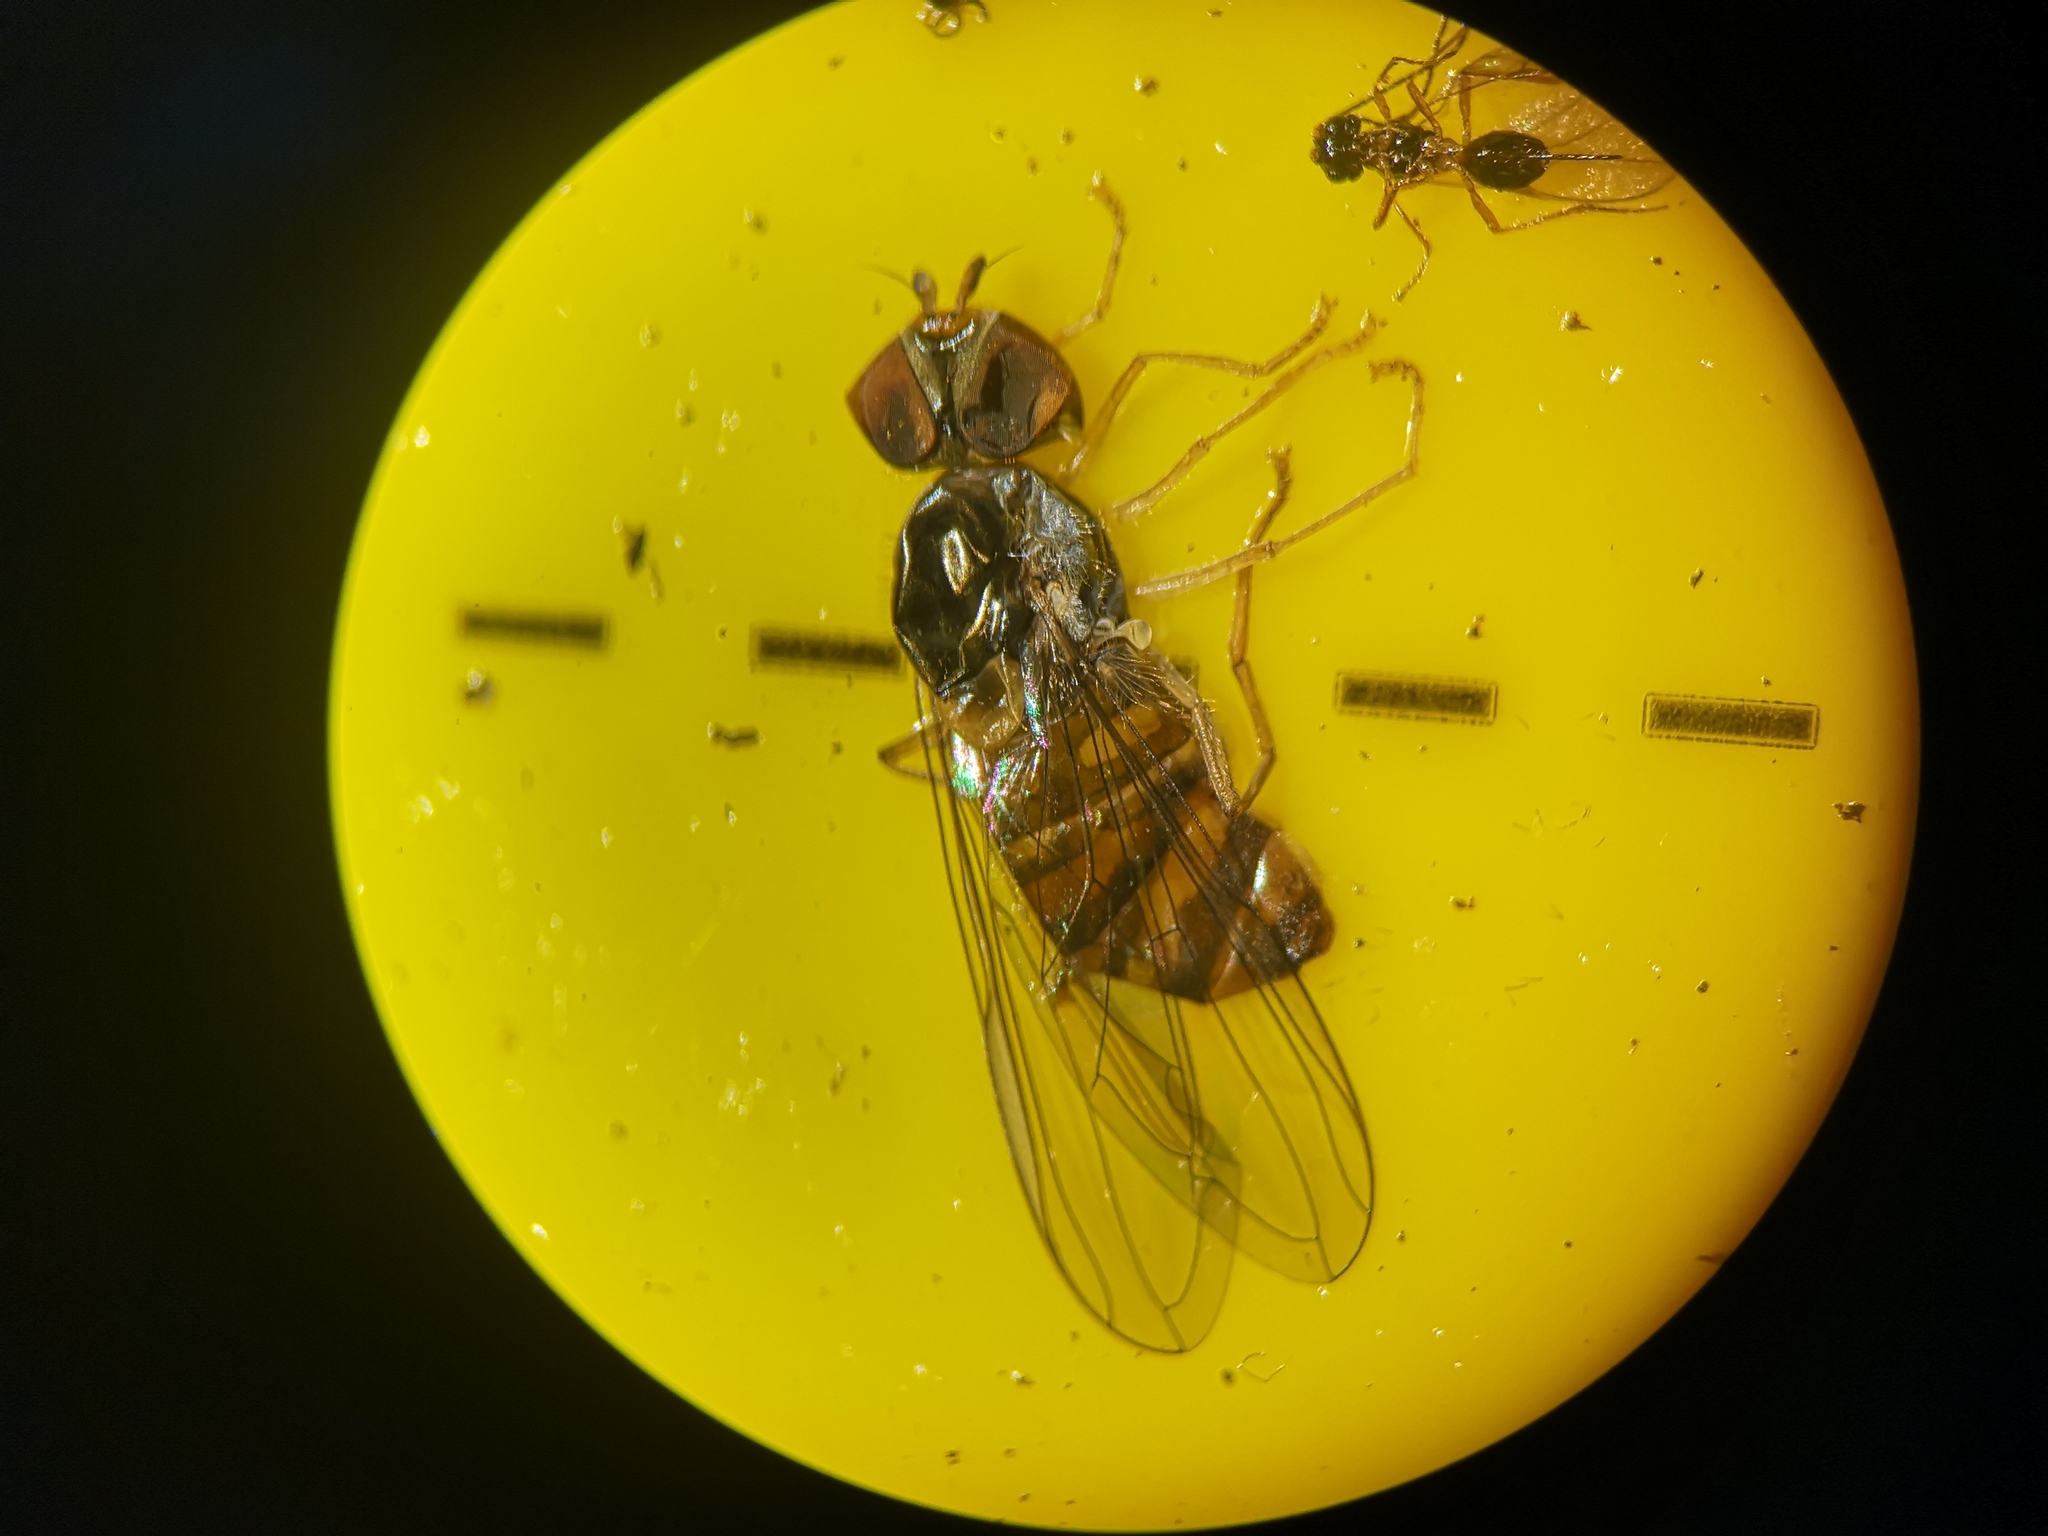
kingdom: Animalia
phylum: Arthropoda
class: Insecta
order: Diptera
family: Syrphidae
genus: Episyrphus
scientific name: Episyrphus balteatus
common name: Marmalade hoverfly
